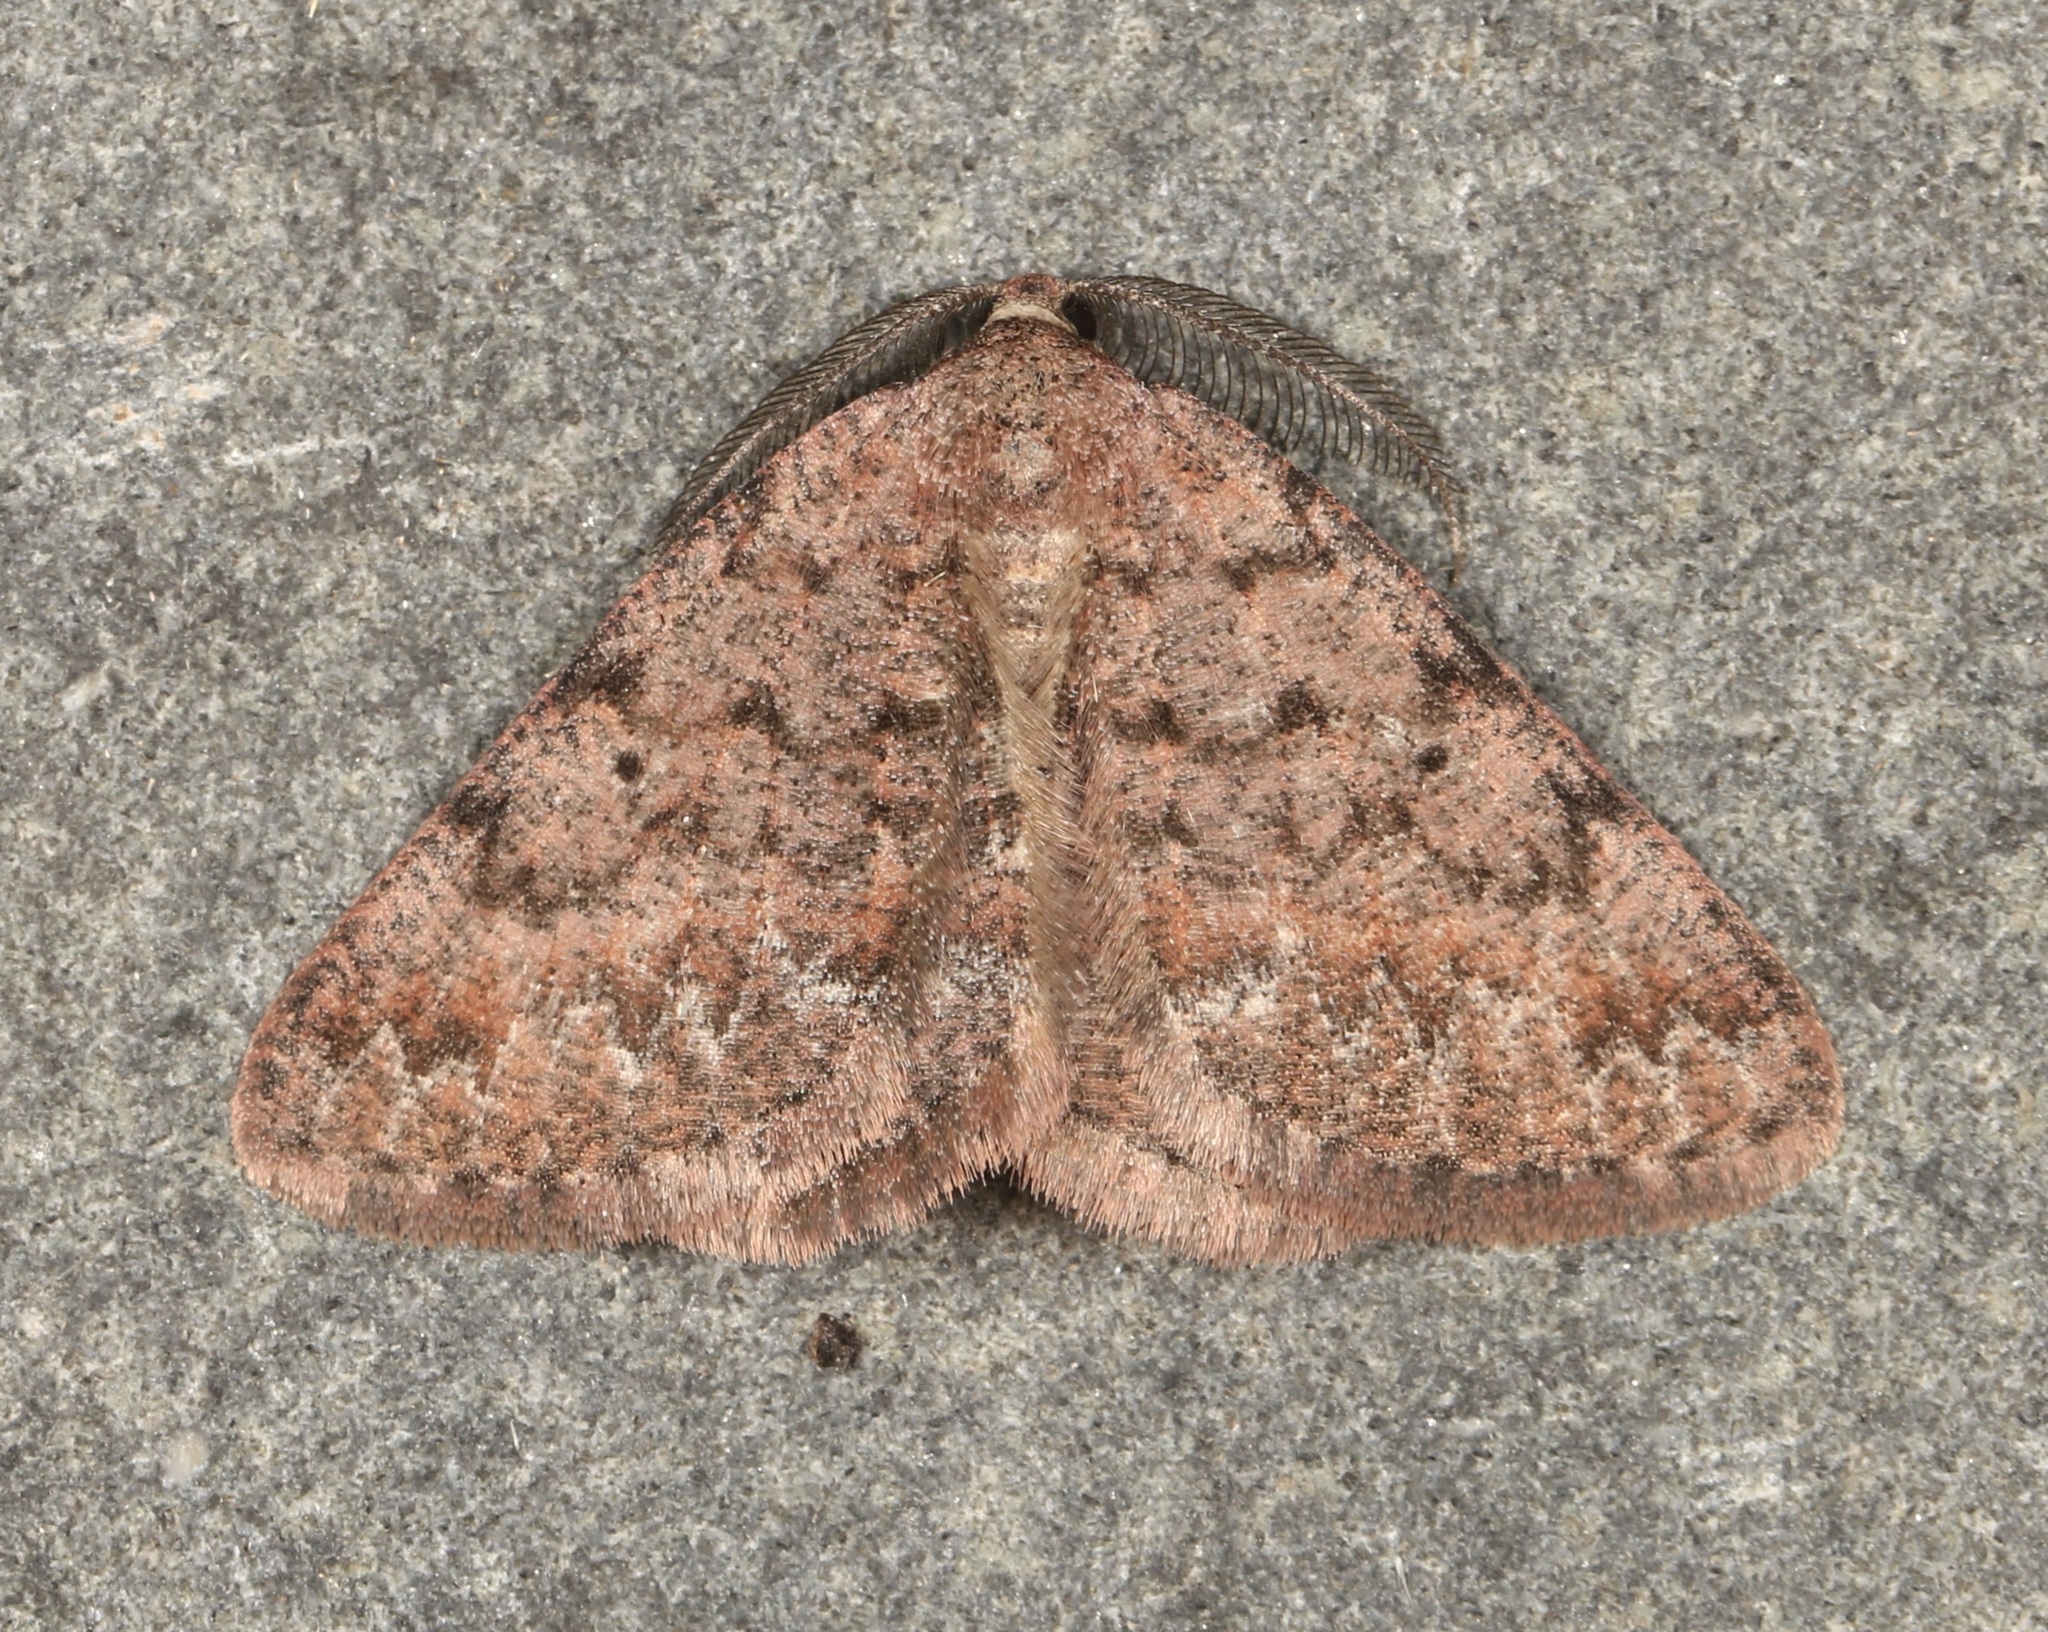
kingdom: Animalia
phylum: Arthropoda
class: Insecta
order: Lepidoptera
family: Geometridae
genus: Ixala
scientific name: Ixala desperaria
